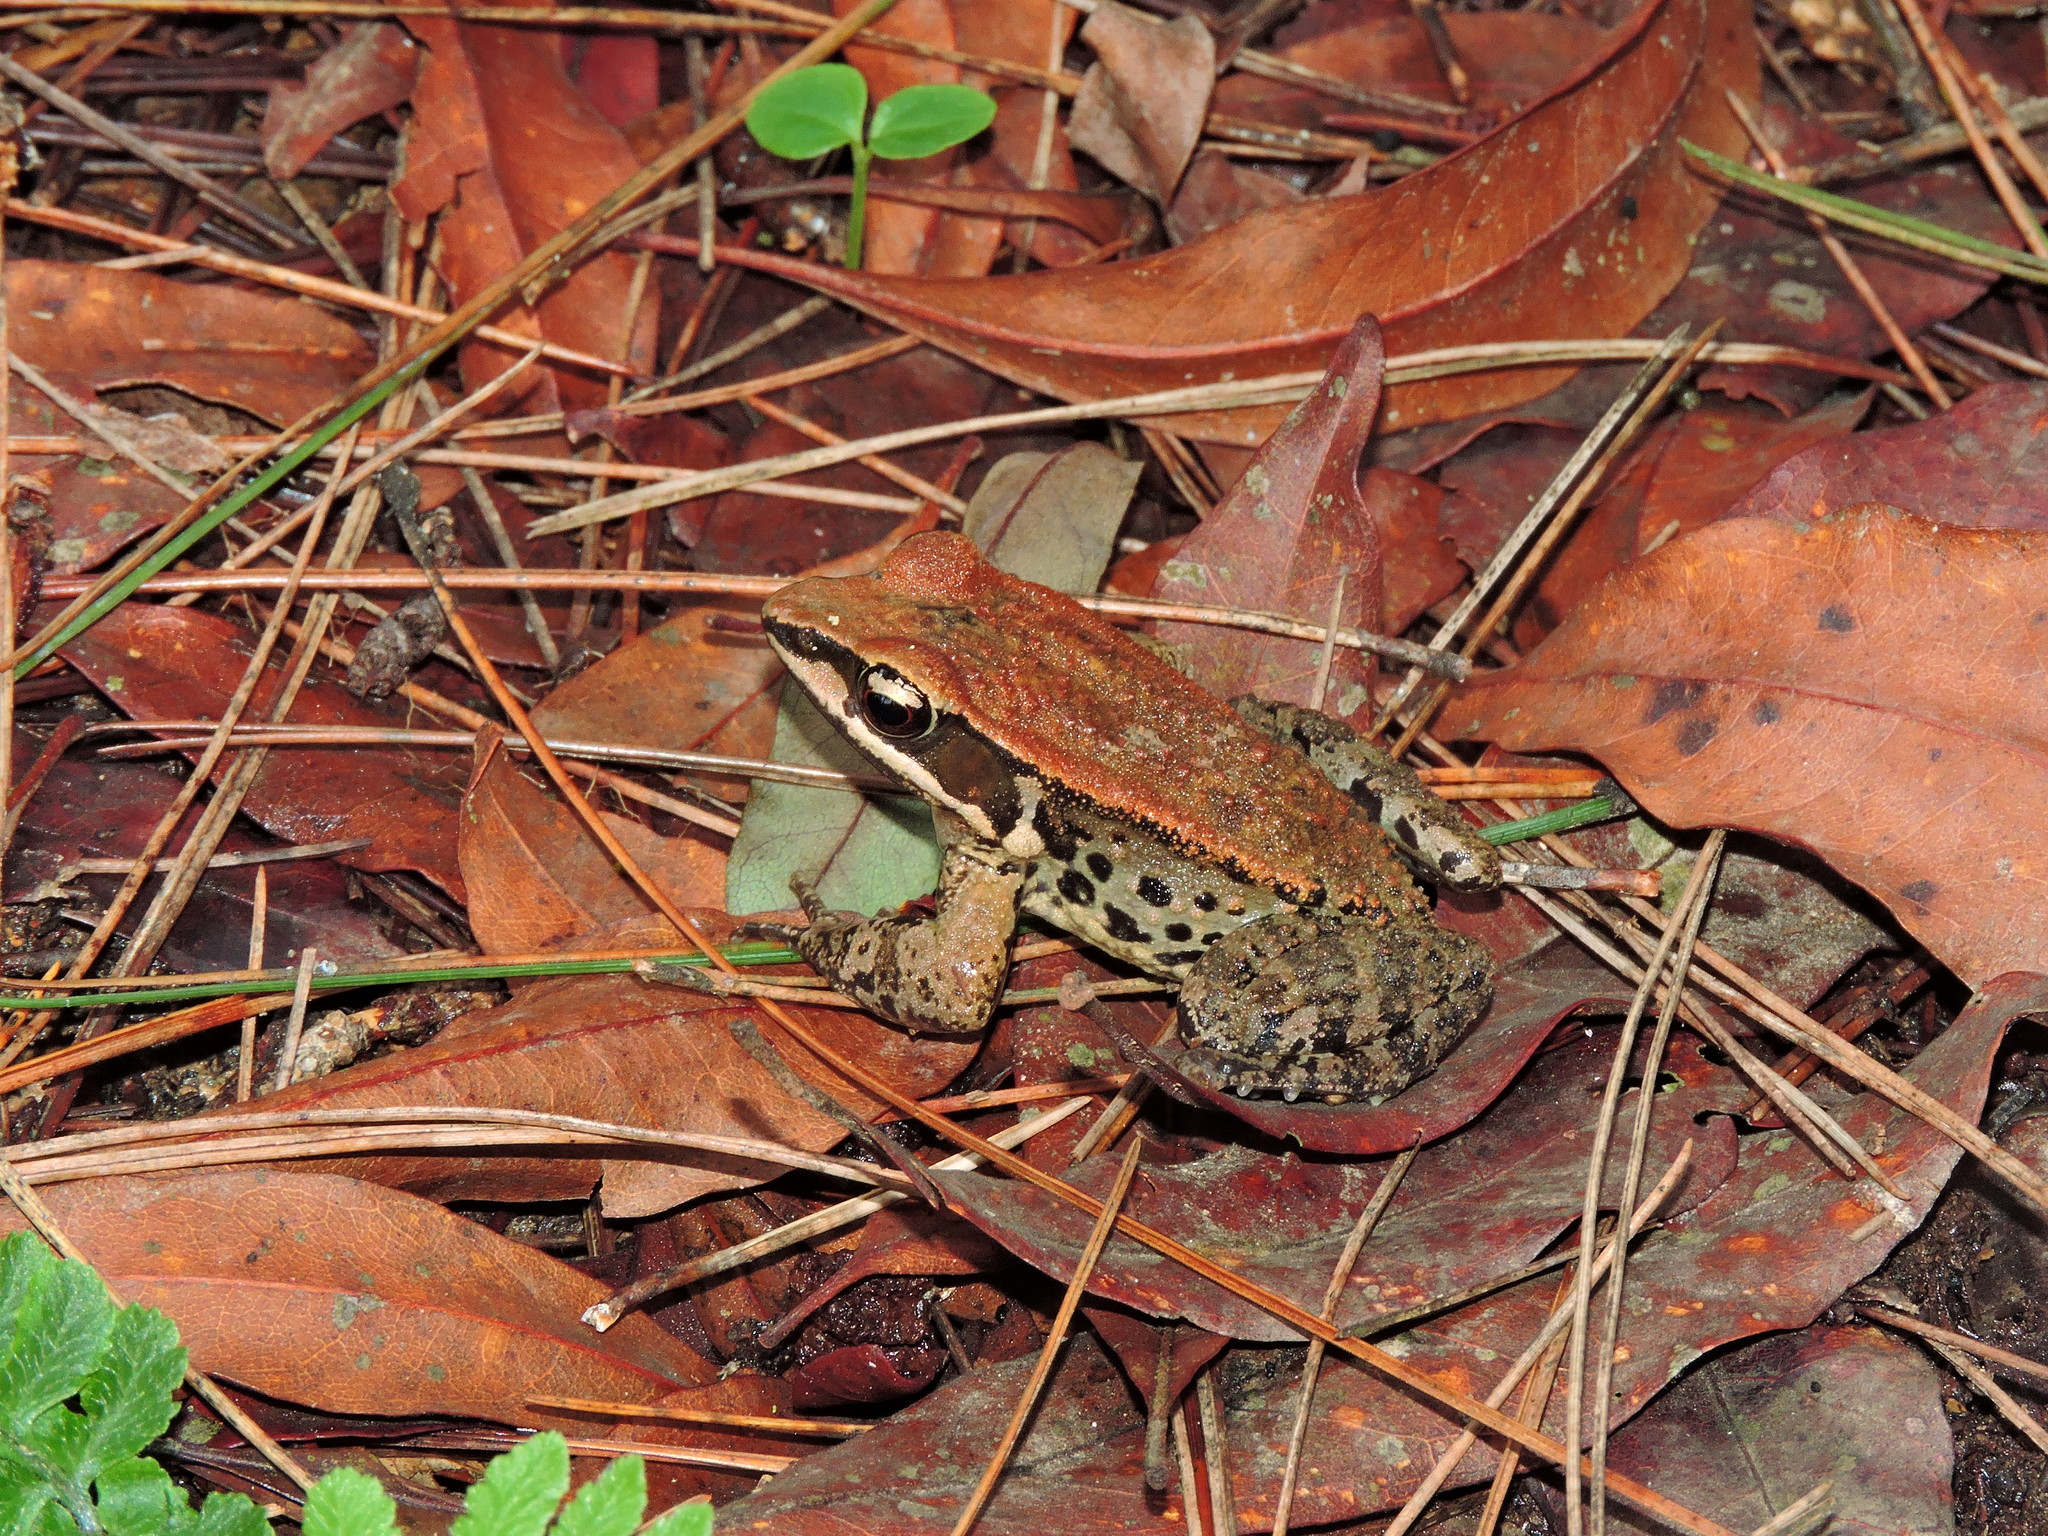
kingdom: Animalia
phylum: Chordata
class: Amphibia
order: Anura
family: Ranidae
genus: Hylarana
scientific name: Hylarana latouchii
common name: Broad-folded frog
